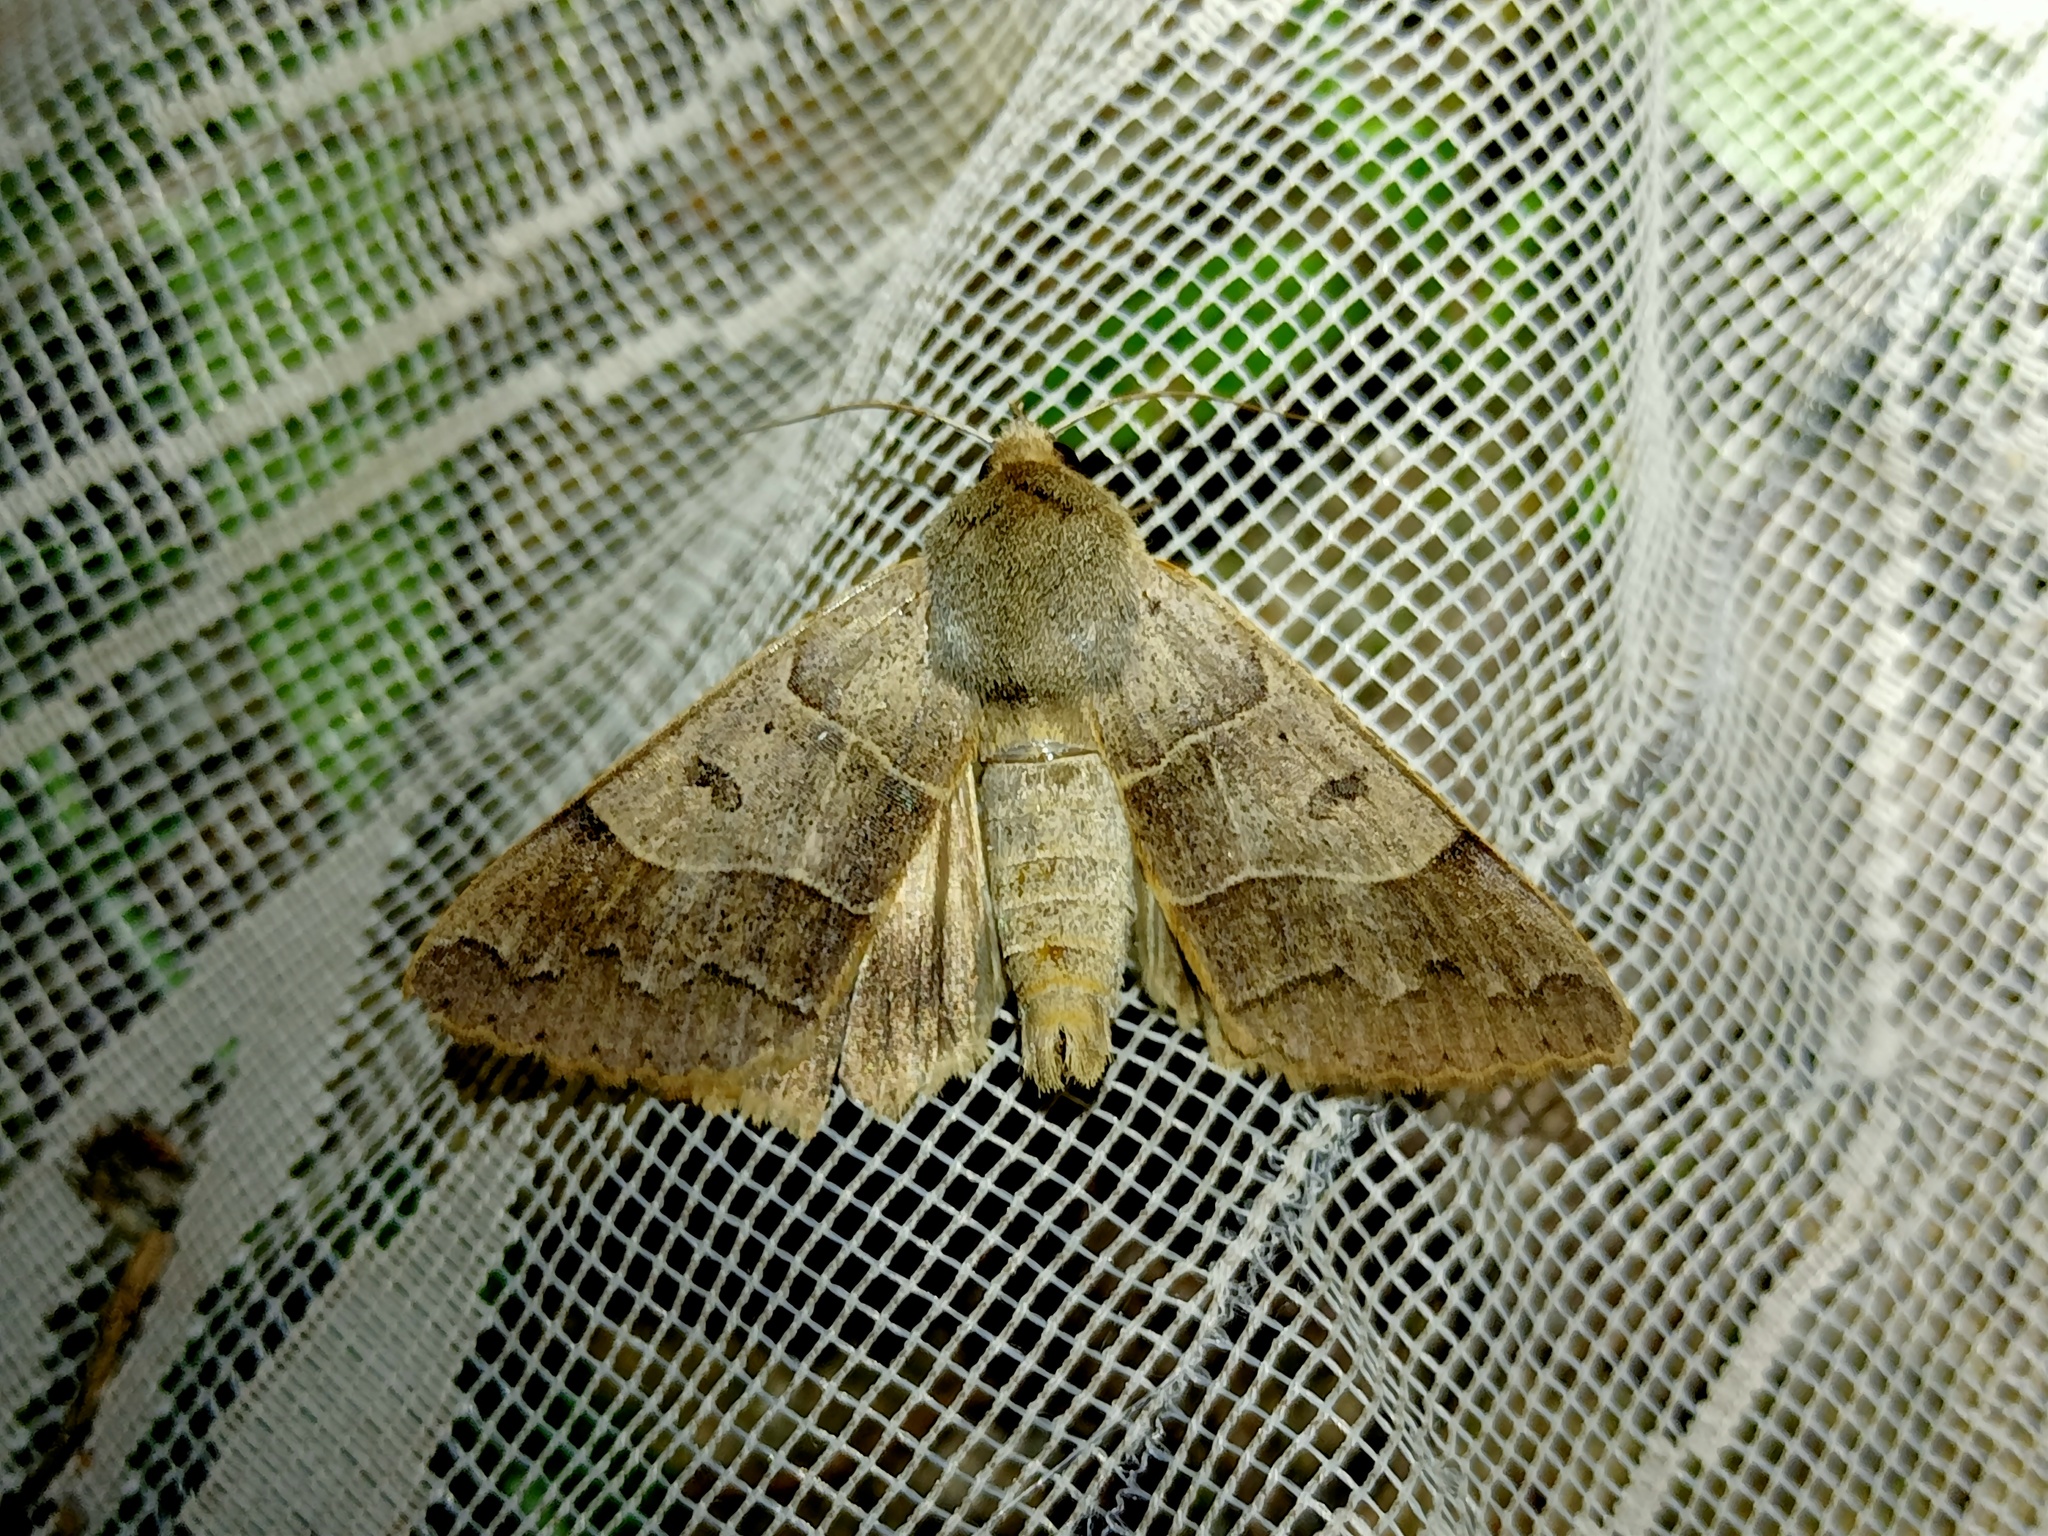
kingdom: Animalia
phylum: Arthropoda
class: Insecta
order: Lepidoptera
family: Erebidae
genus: Minucia
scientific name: Minucia lunaris
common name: Lunar double-stripe
